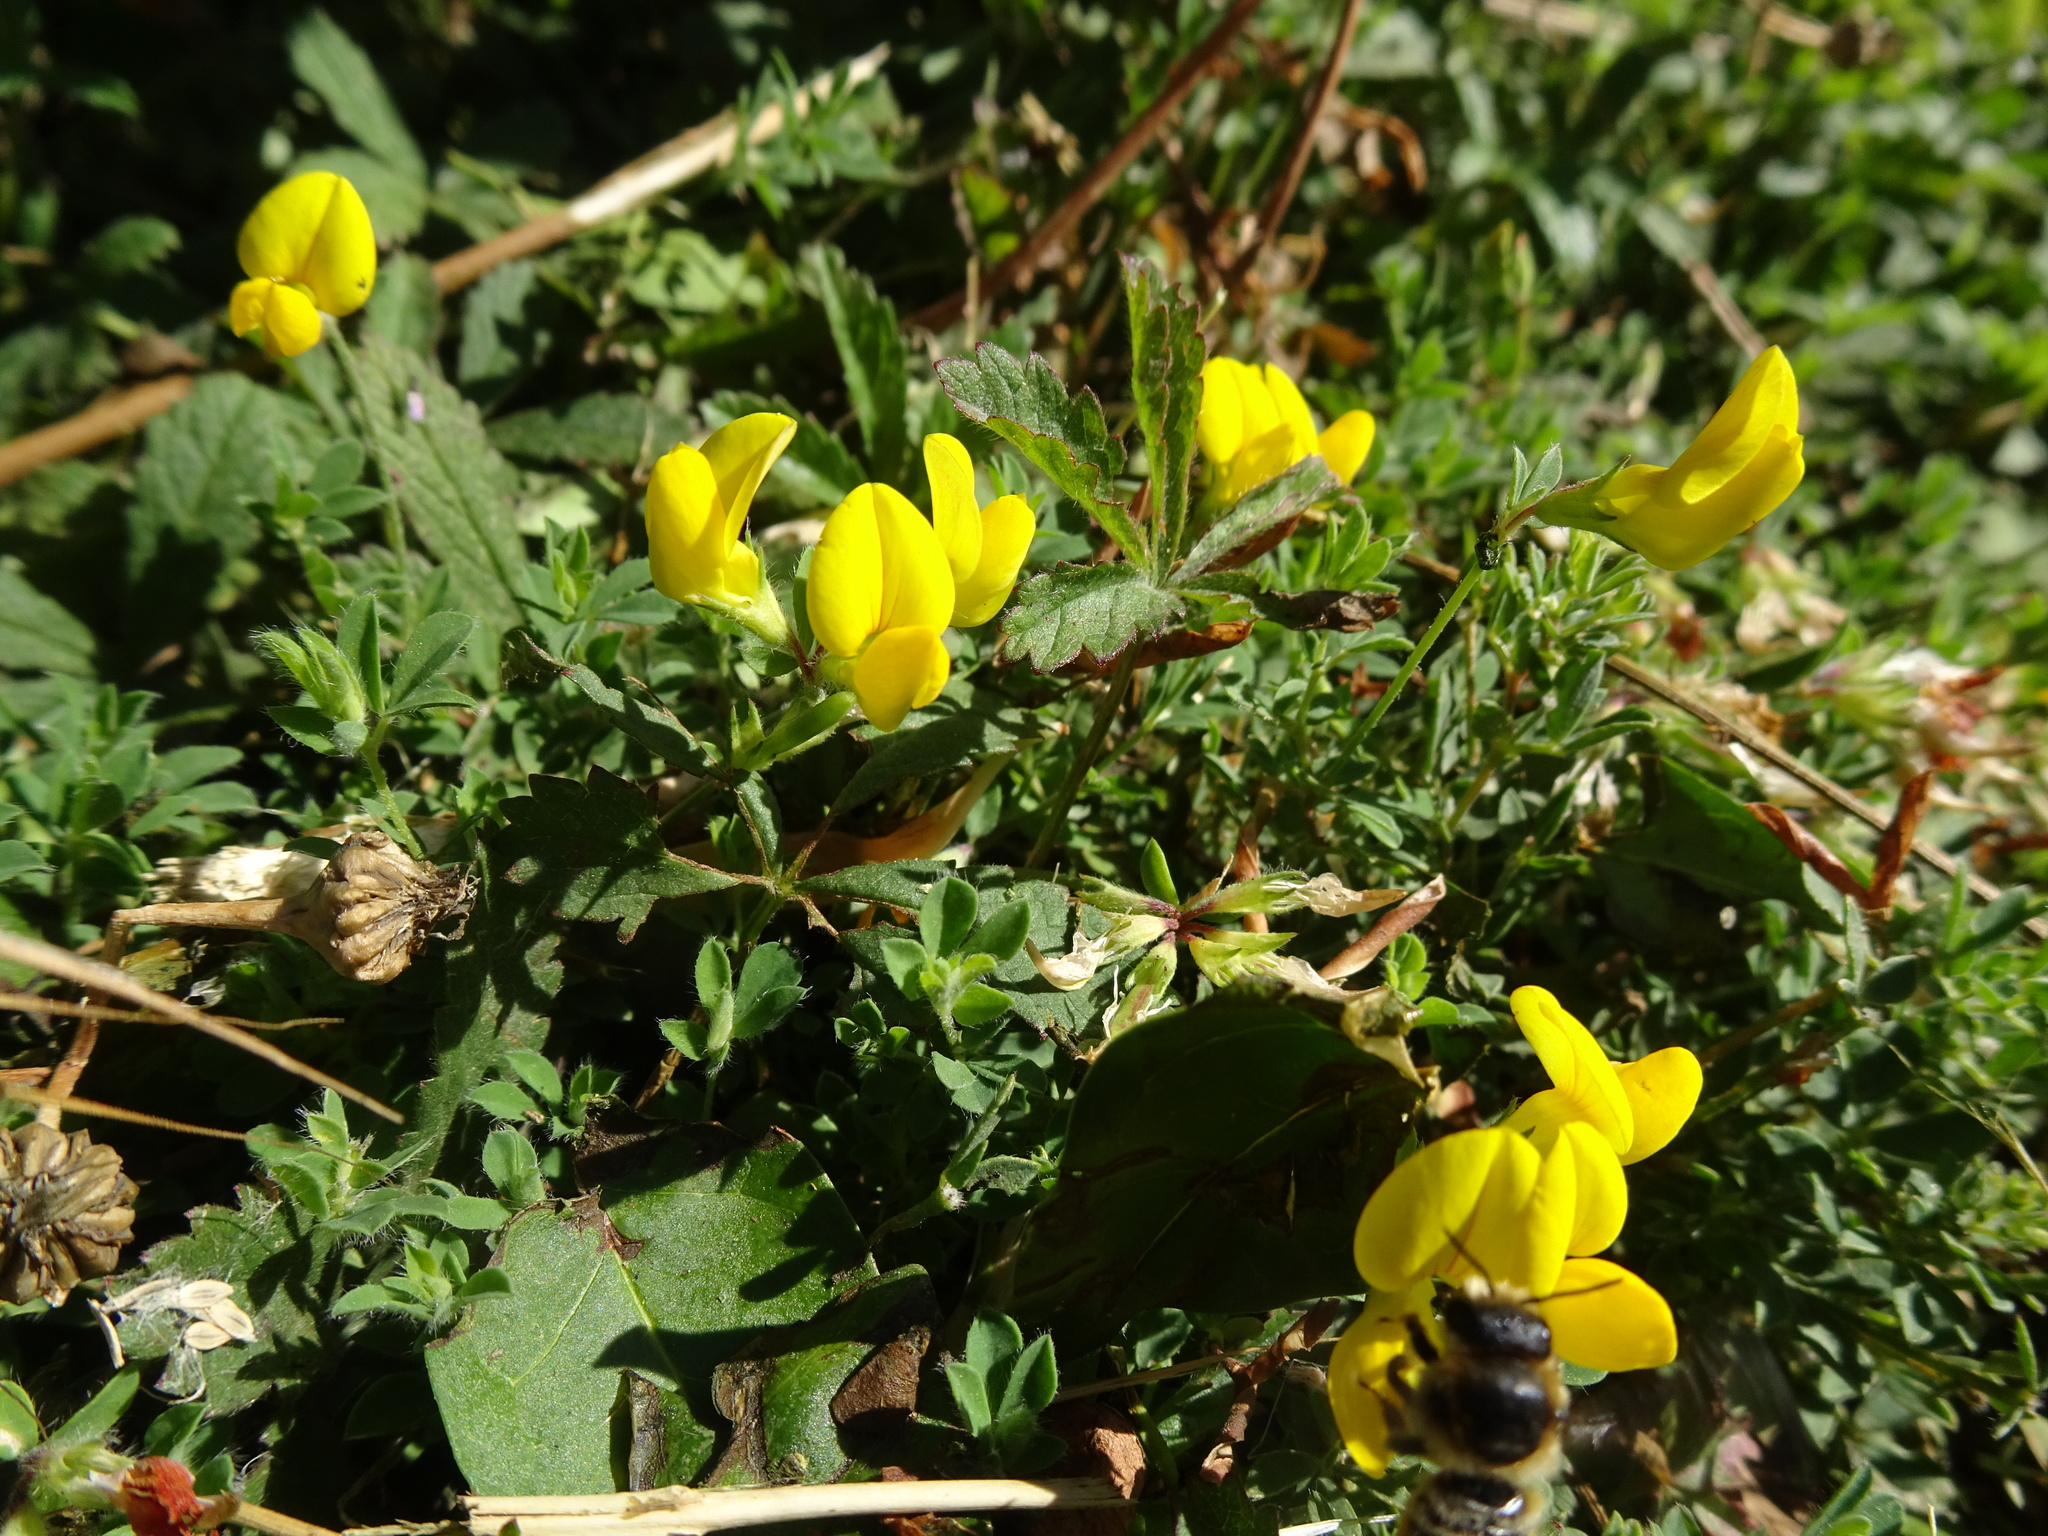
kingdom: Plantae
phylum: Tracheophyta
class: Magnoliopsida
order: Fabales
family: Fabaceae
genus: Lotus
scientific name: Lotus corniculatus
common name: Common bird's-foot-trefoil
